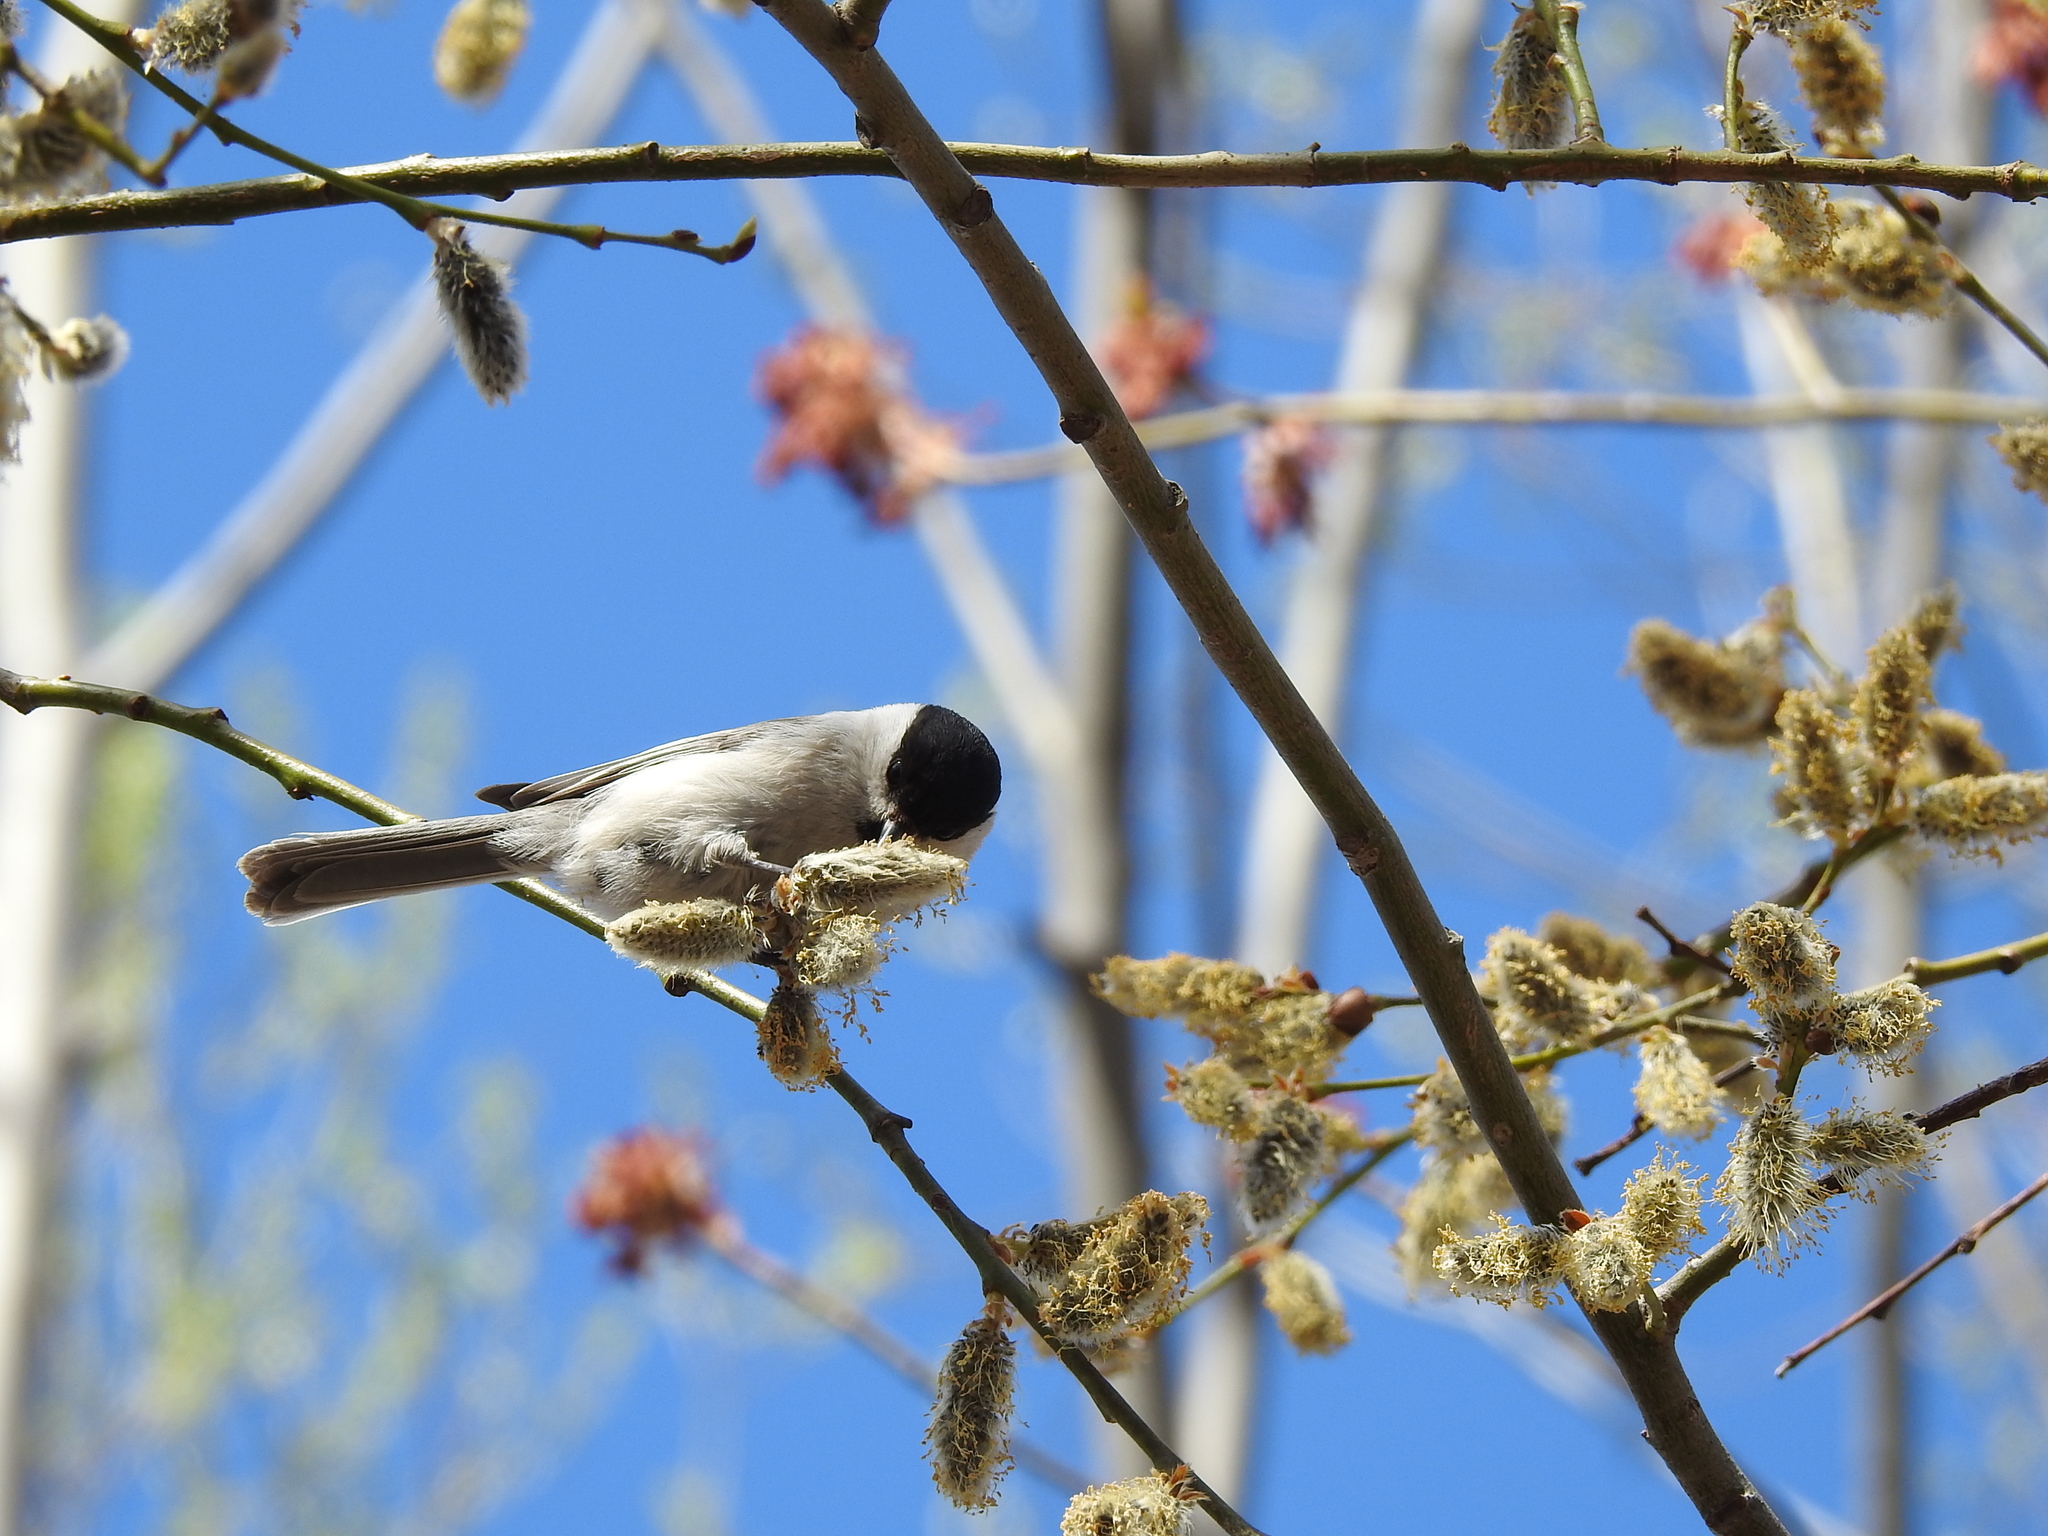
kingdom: Animalia
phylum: Chordata
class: Aves
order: Passeriformes
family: Paridae
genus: Poecile
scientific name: Poecile montanus
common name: Willow tit
